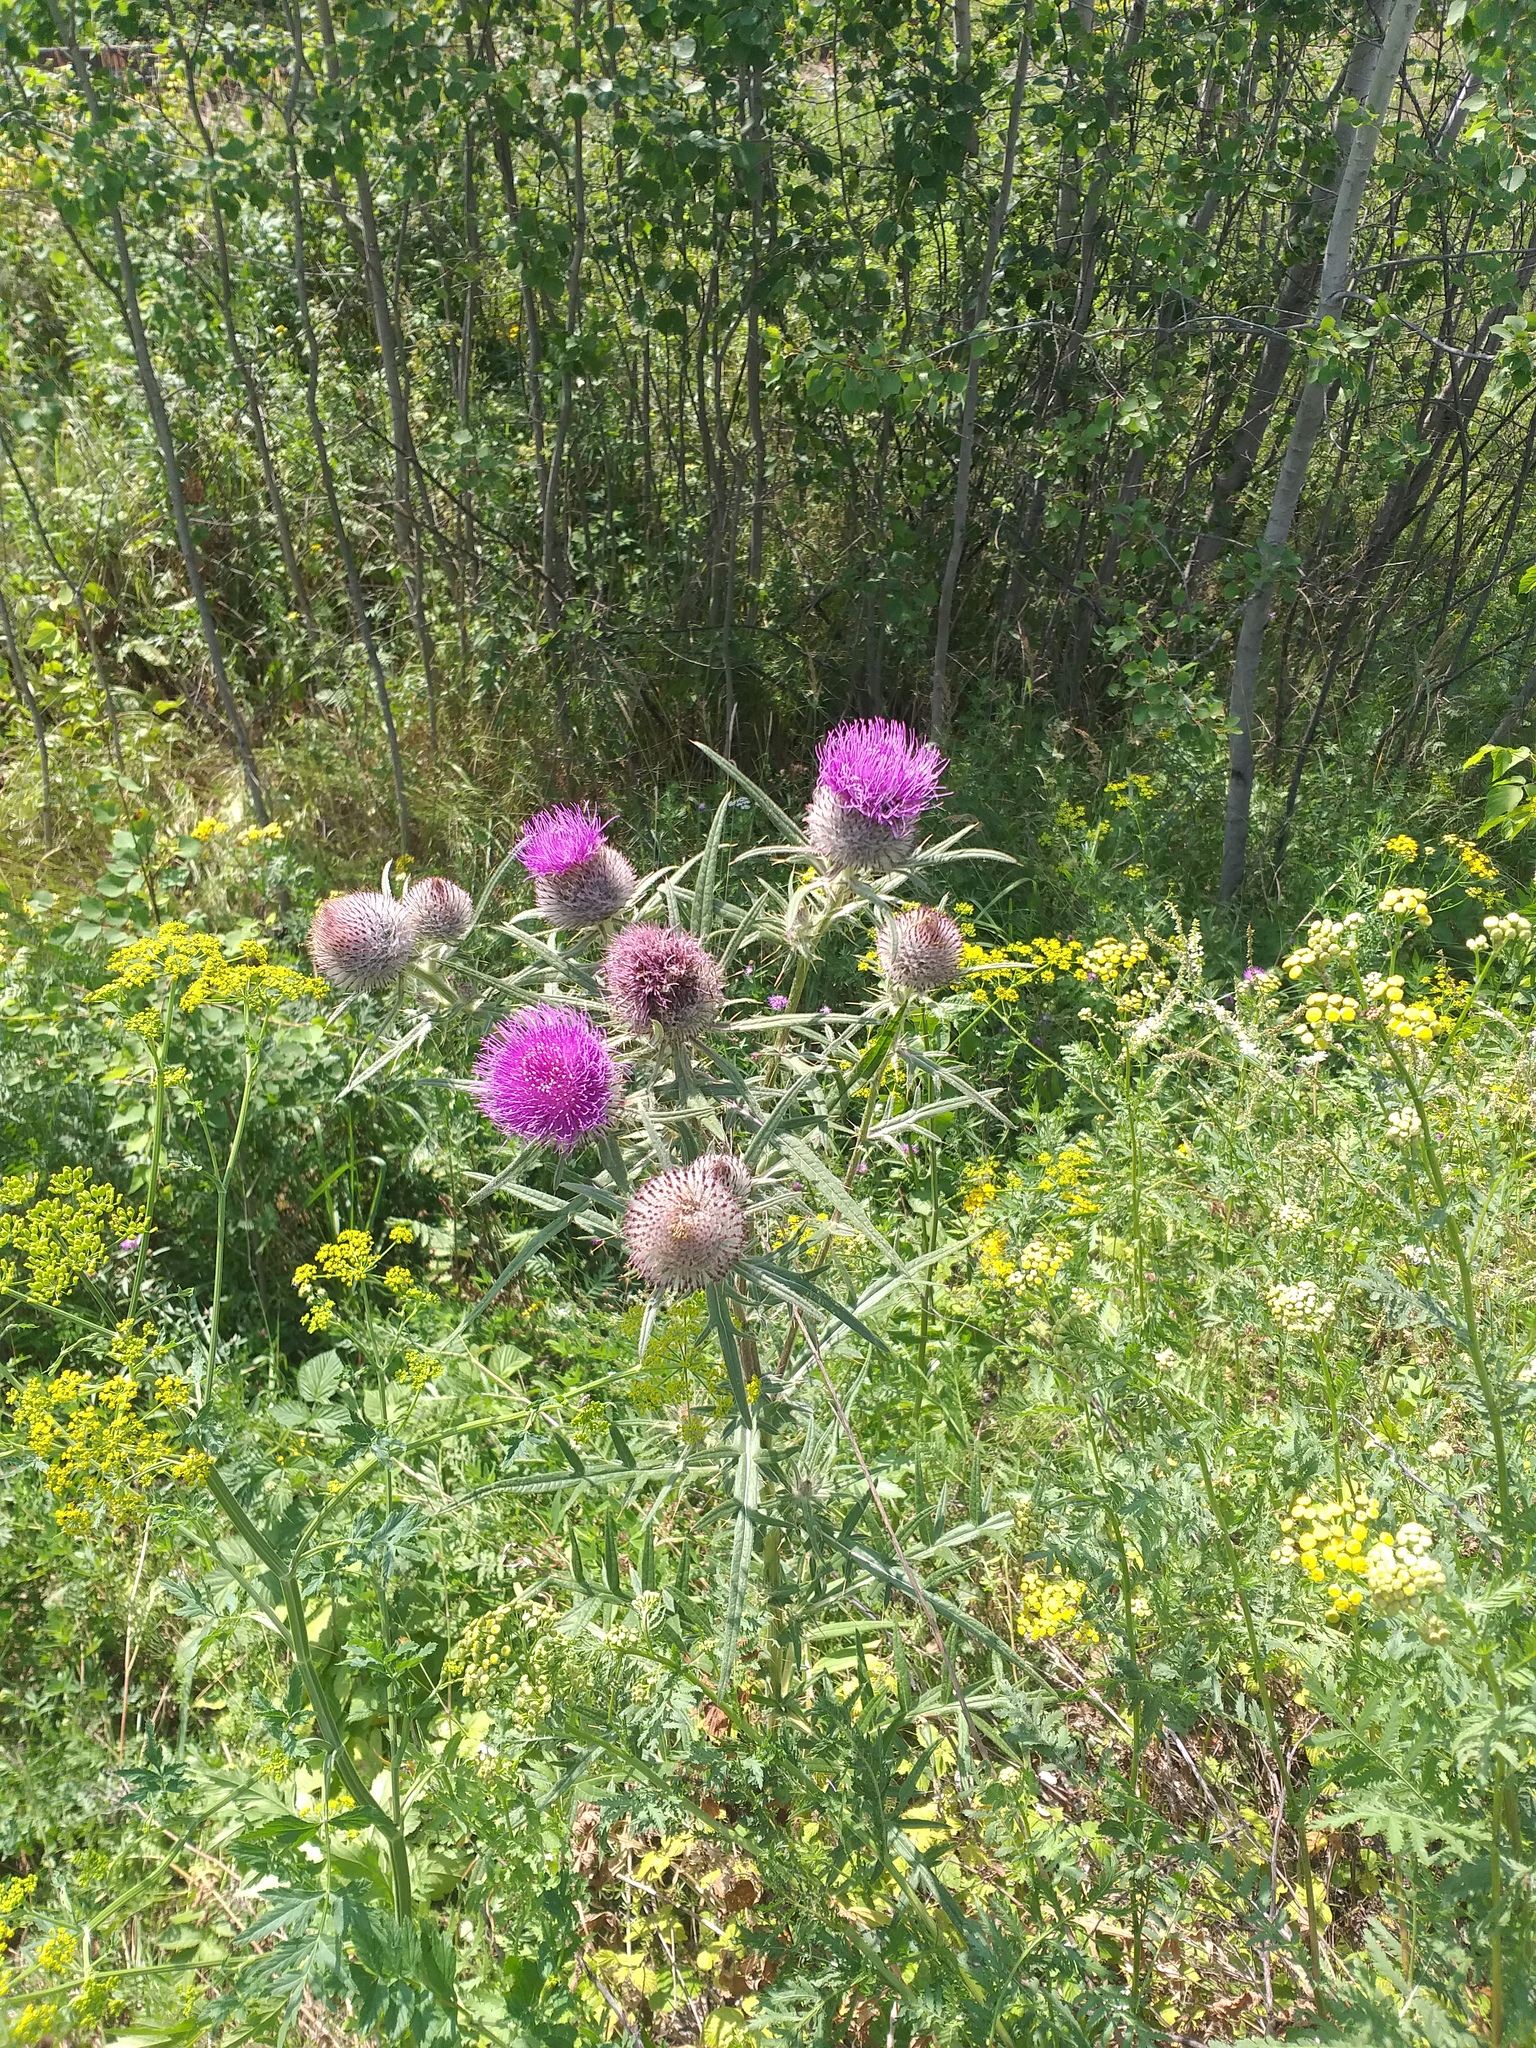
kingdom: Plantae
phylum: Tracheophyta
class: Magnoliopsida
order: Asterales
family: Asteraceae
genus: Lophiolepis
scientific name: Lophiolepis decussata
